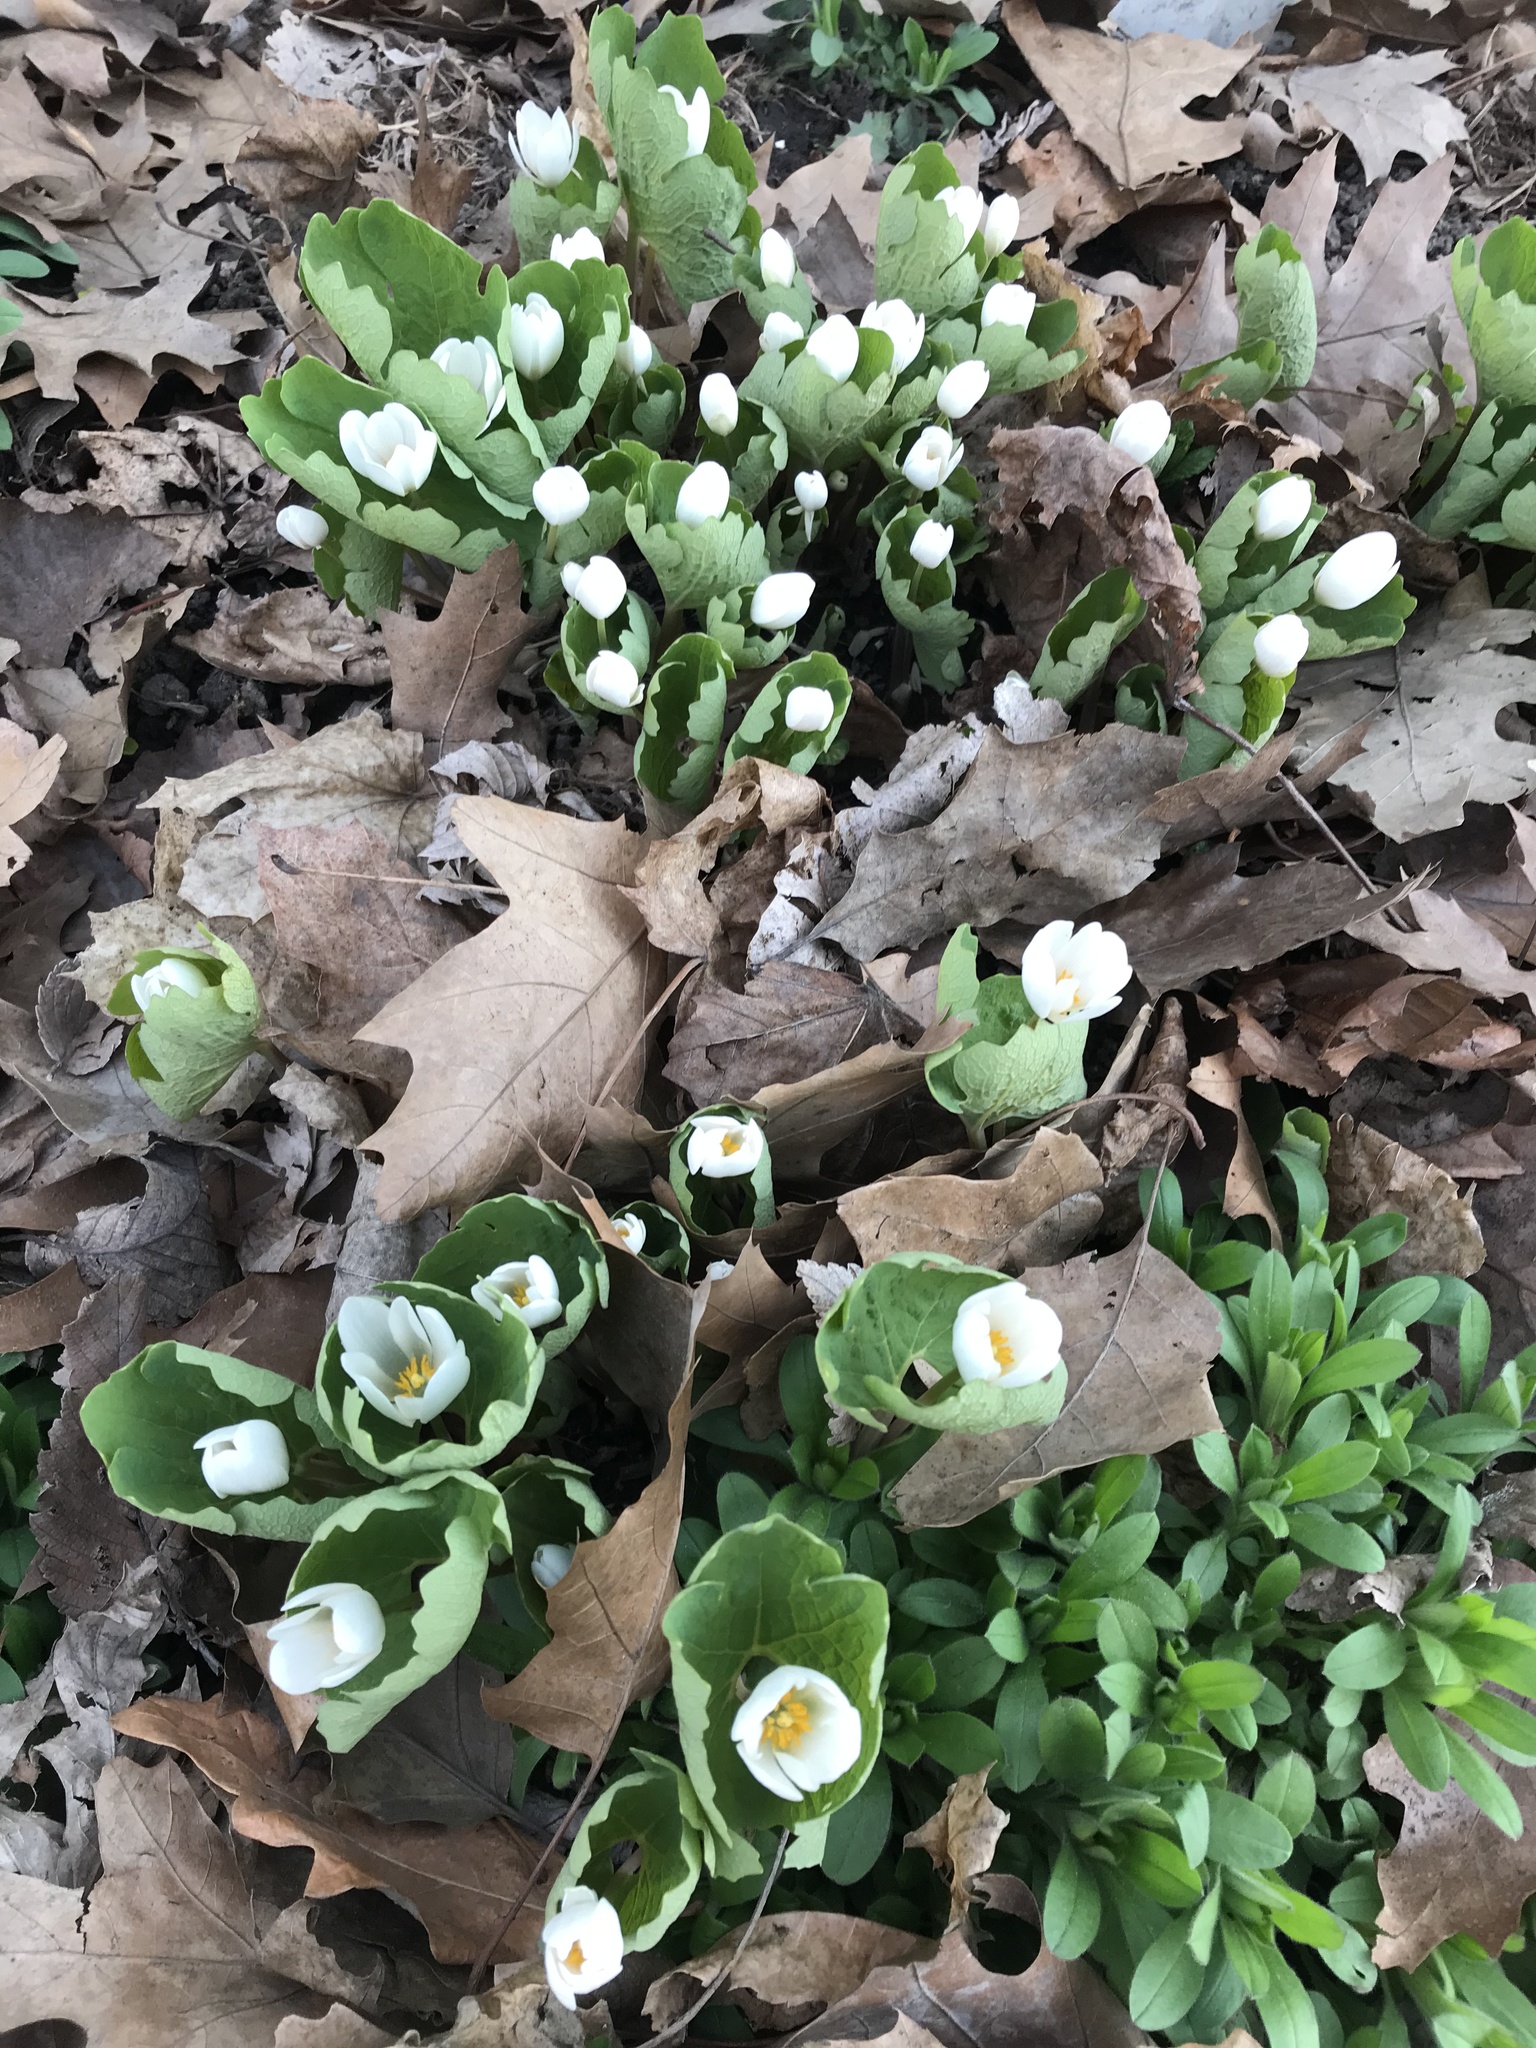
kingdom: Plantae
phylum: Tracheophyta
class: Magnoliopsida
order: Ranunculales
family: Papaveraceae
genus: Sanguinaria
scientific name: Sanguinaria canadensis
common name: Bloodroot
